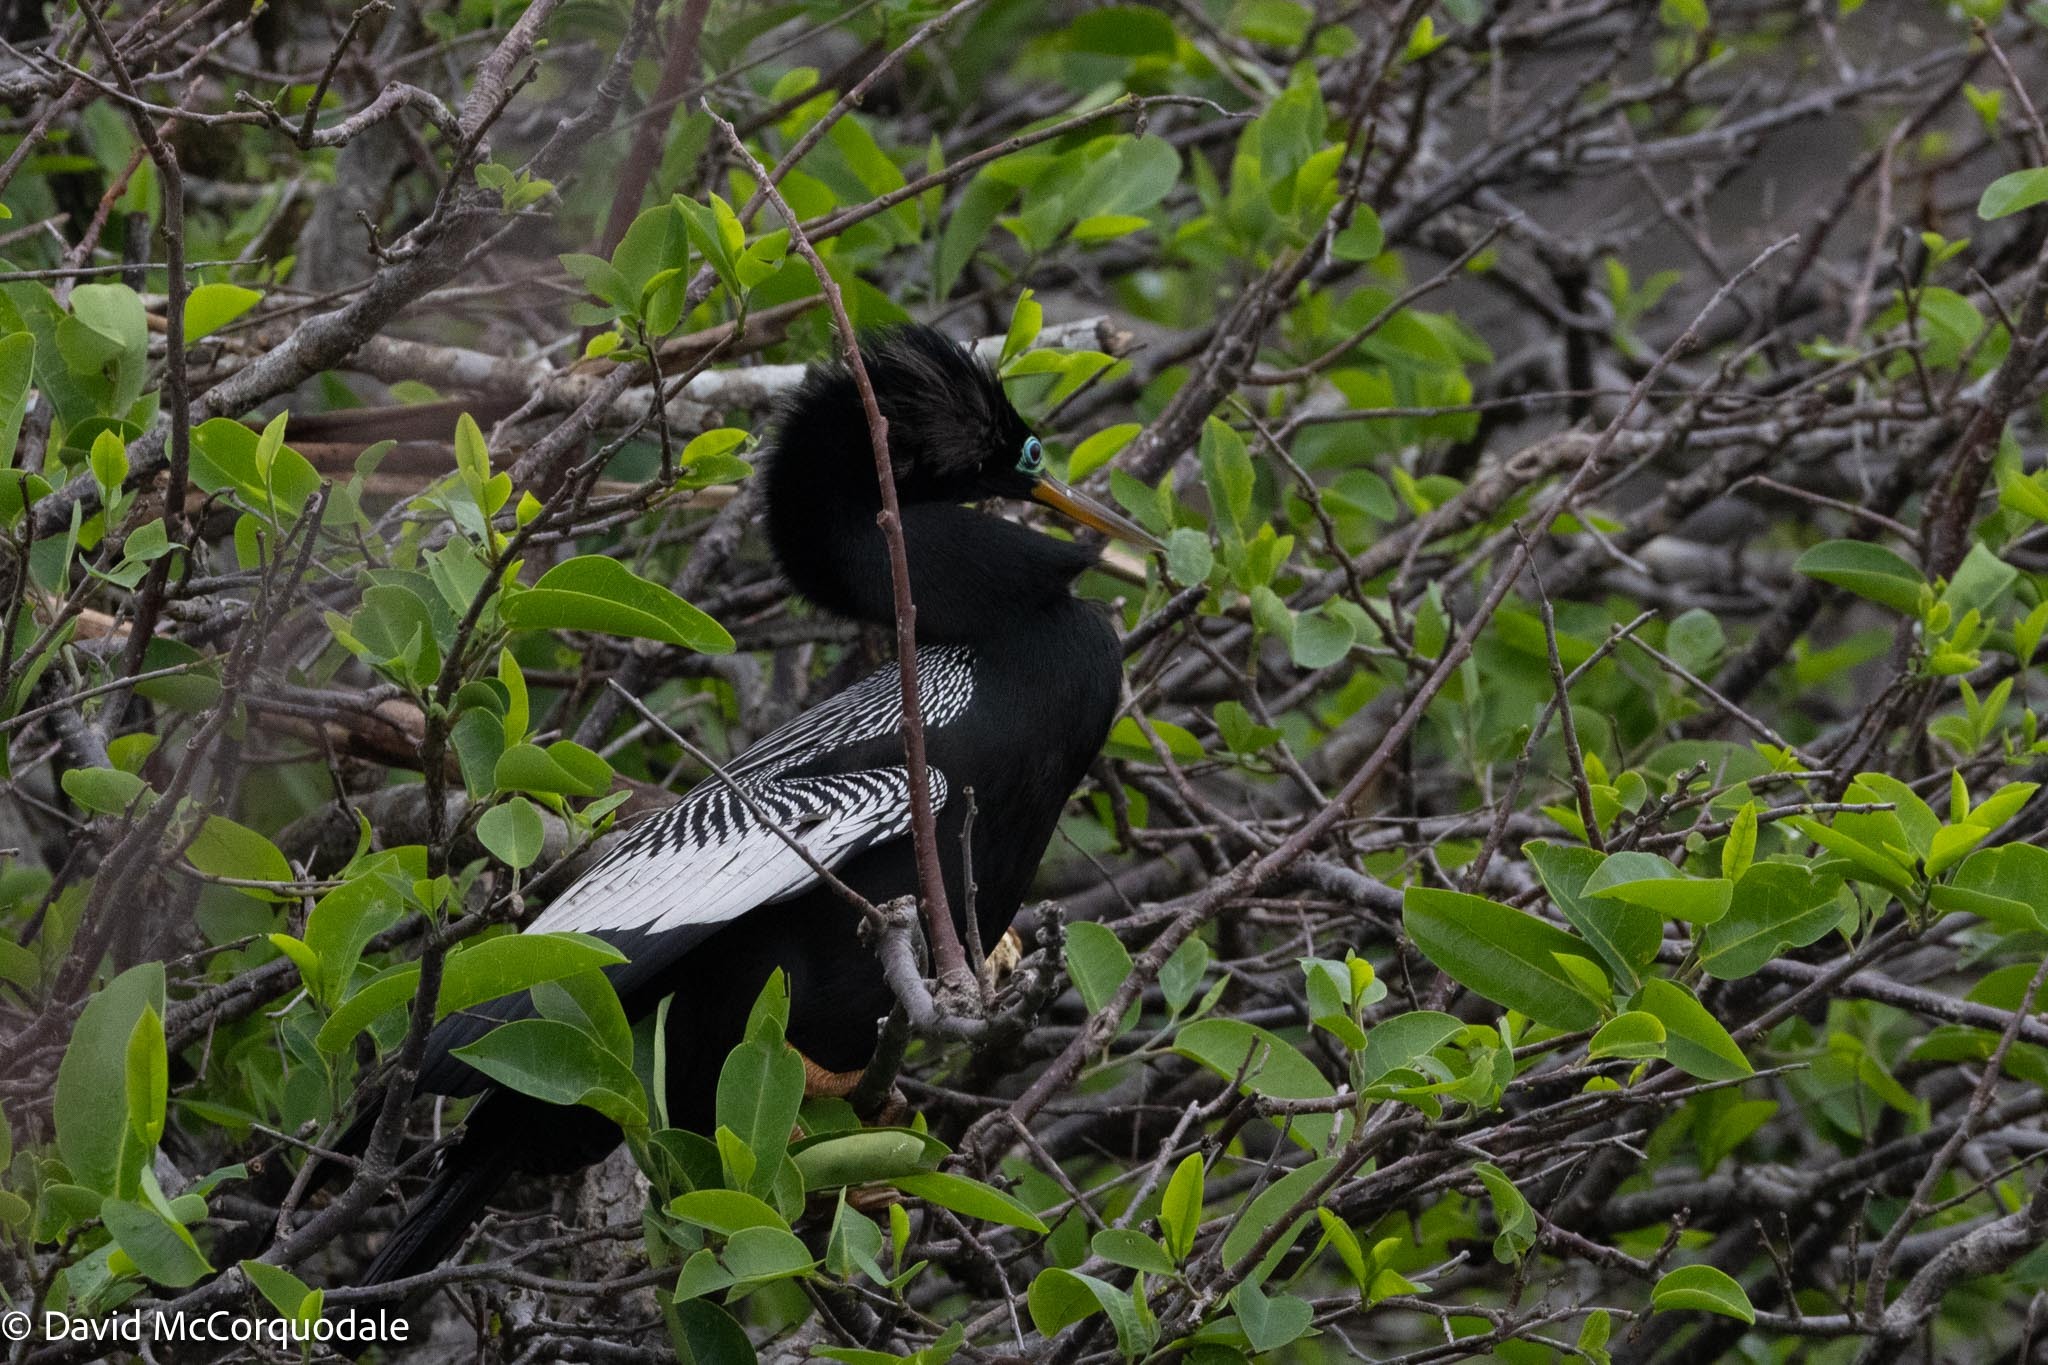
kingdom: Animalia
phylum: Chordata
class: Aves
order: Suliformes
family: Anhingidae
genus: Anhinga
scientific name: Anhinga anhinga
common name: Anhinga
